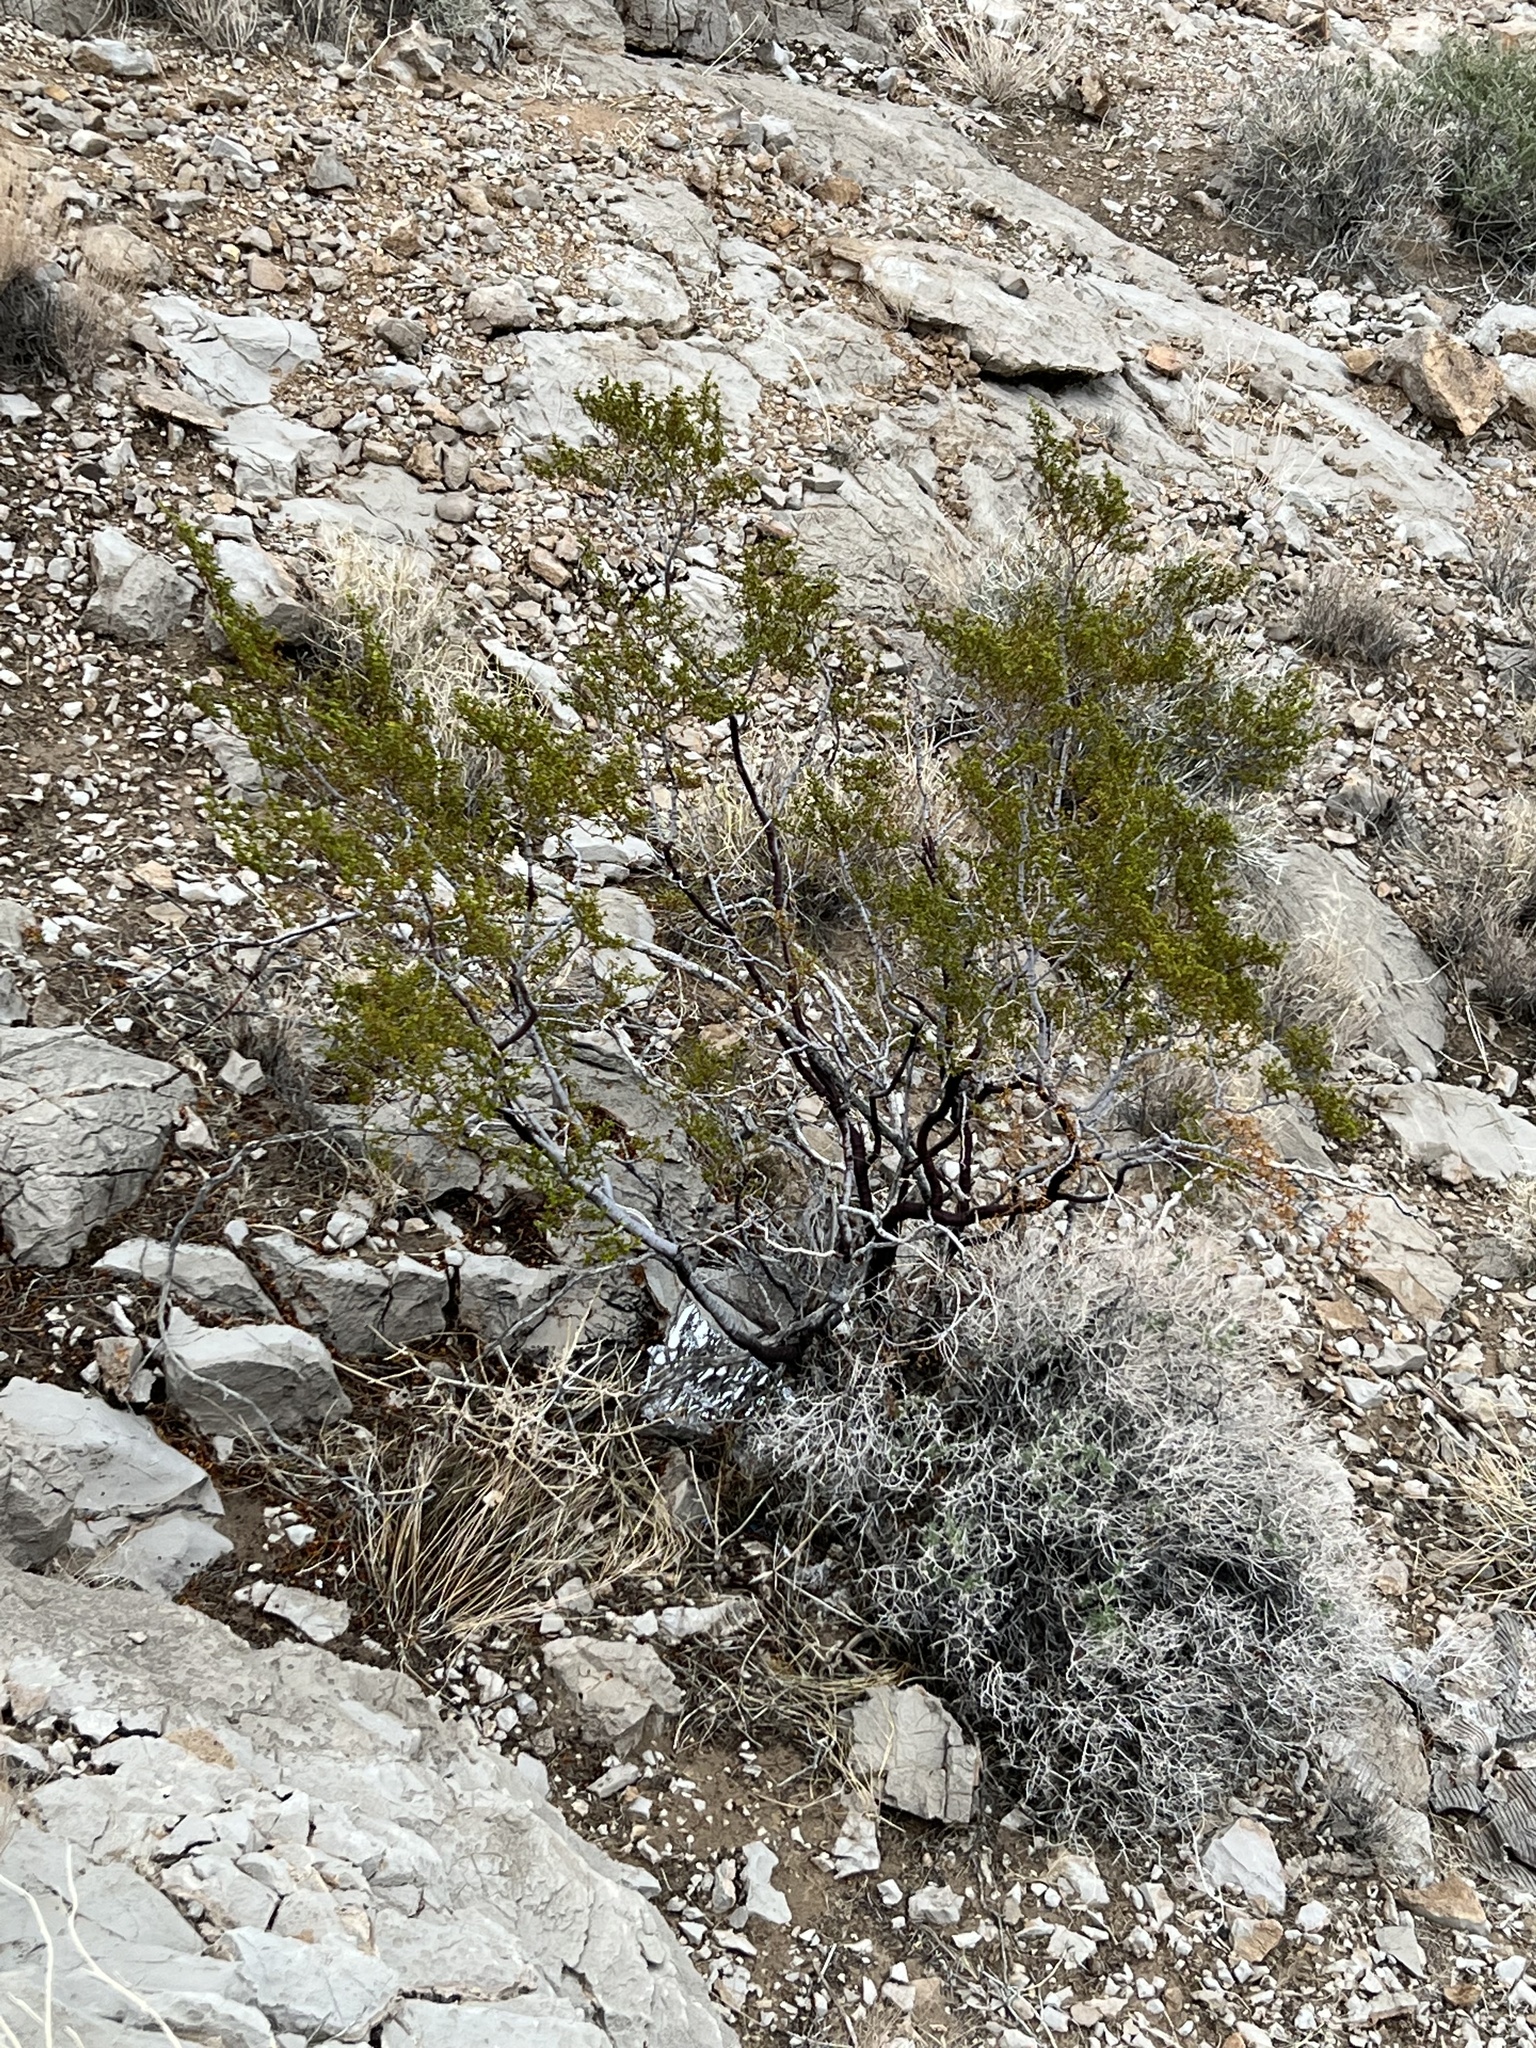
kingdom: Plantae
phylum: Tracheophyta
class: Magnoliopsida
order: Zygophyllales
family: Zygophyllaceae
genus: Larrea
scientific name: Larrea tridentata
